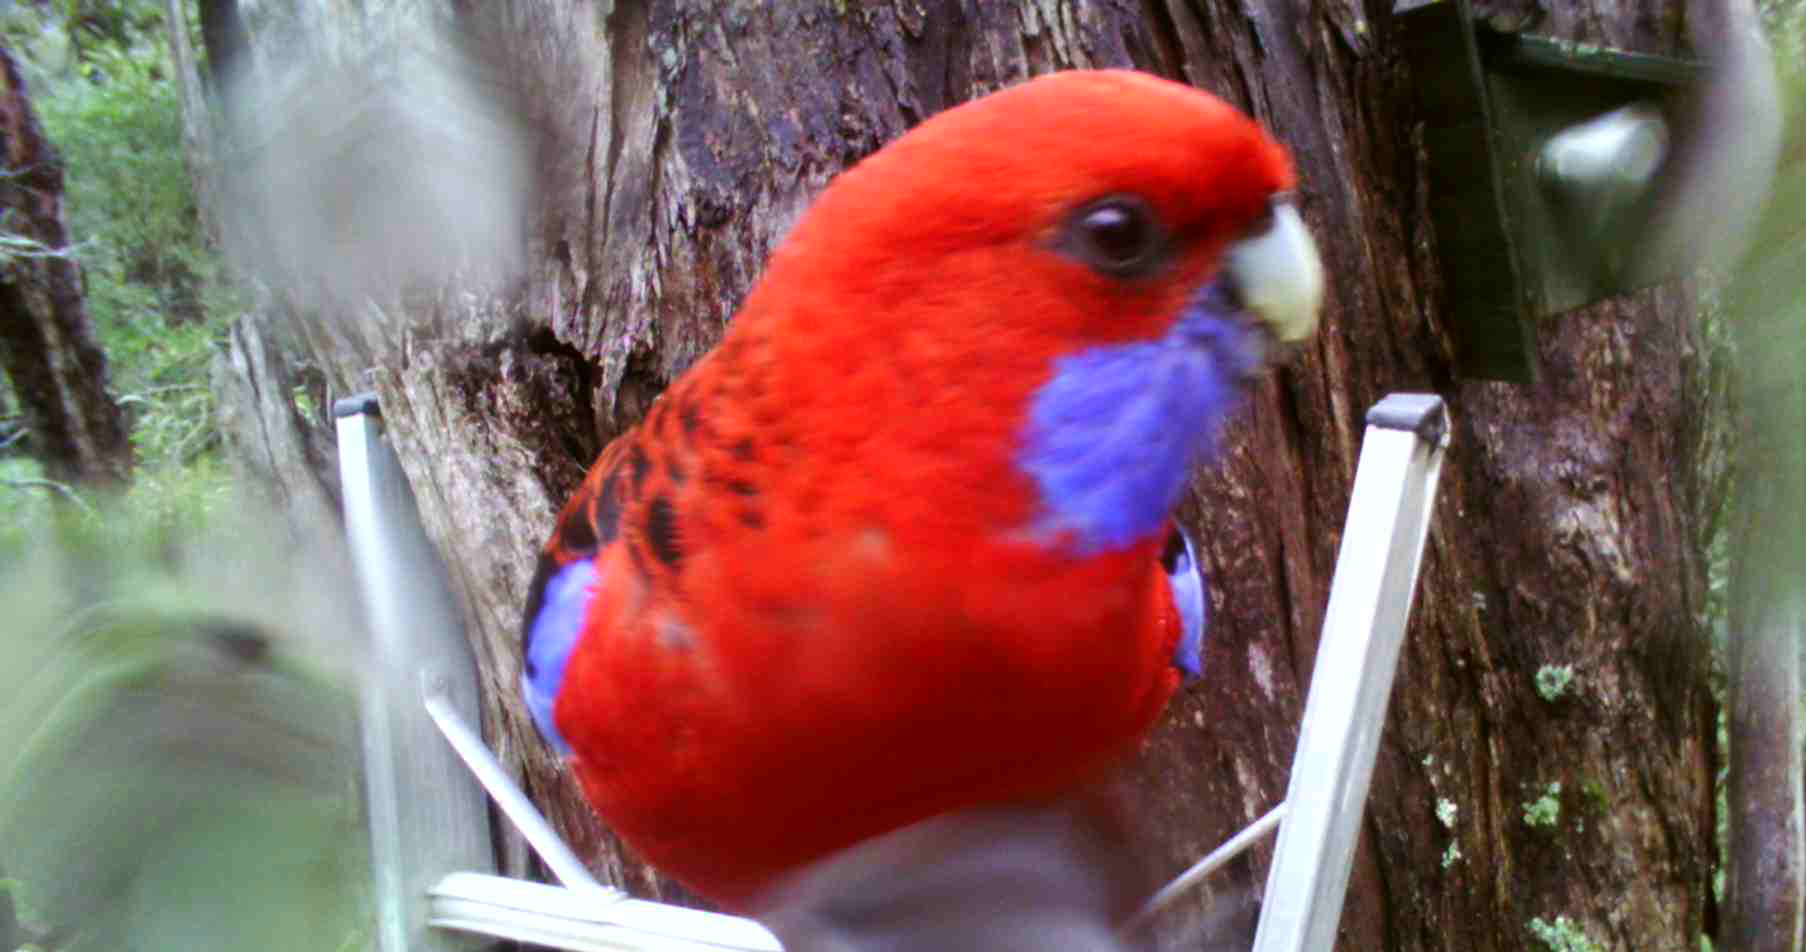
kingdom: Animalia
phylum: Chordata
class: Aves
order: Psittaciformes
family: Psittacidae
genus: Platycercus
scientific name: Platycercus elegans
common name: Crimson rosella
